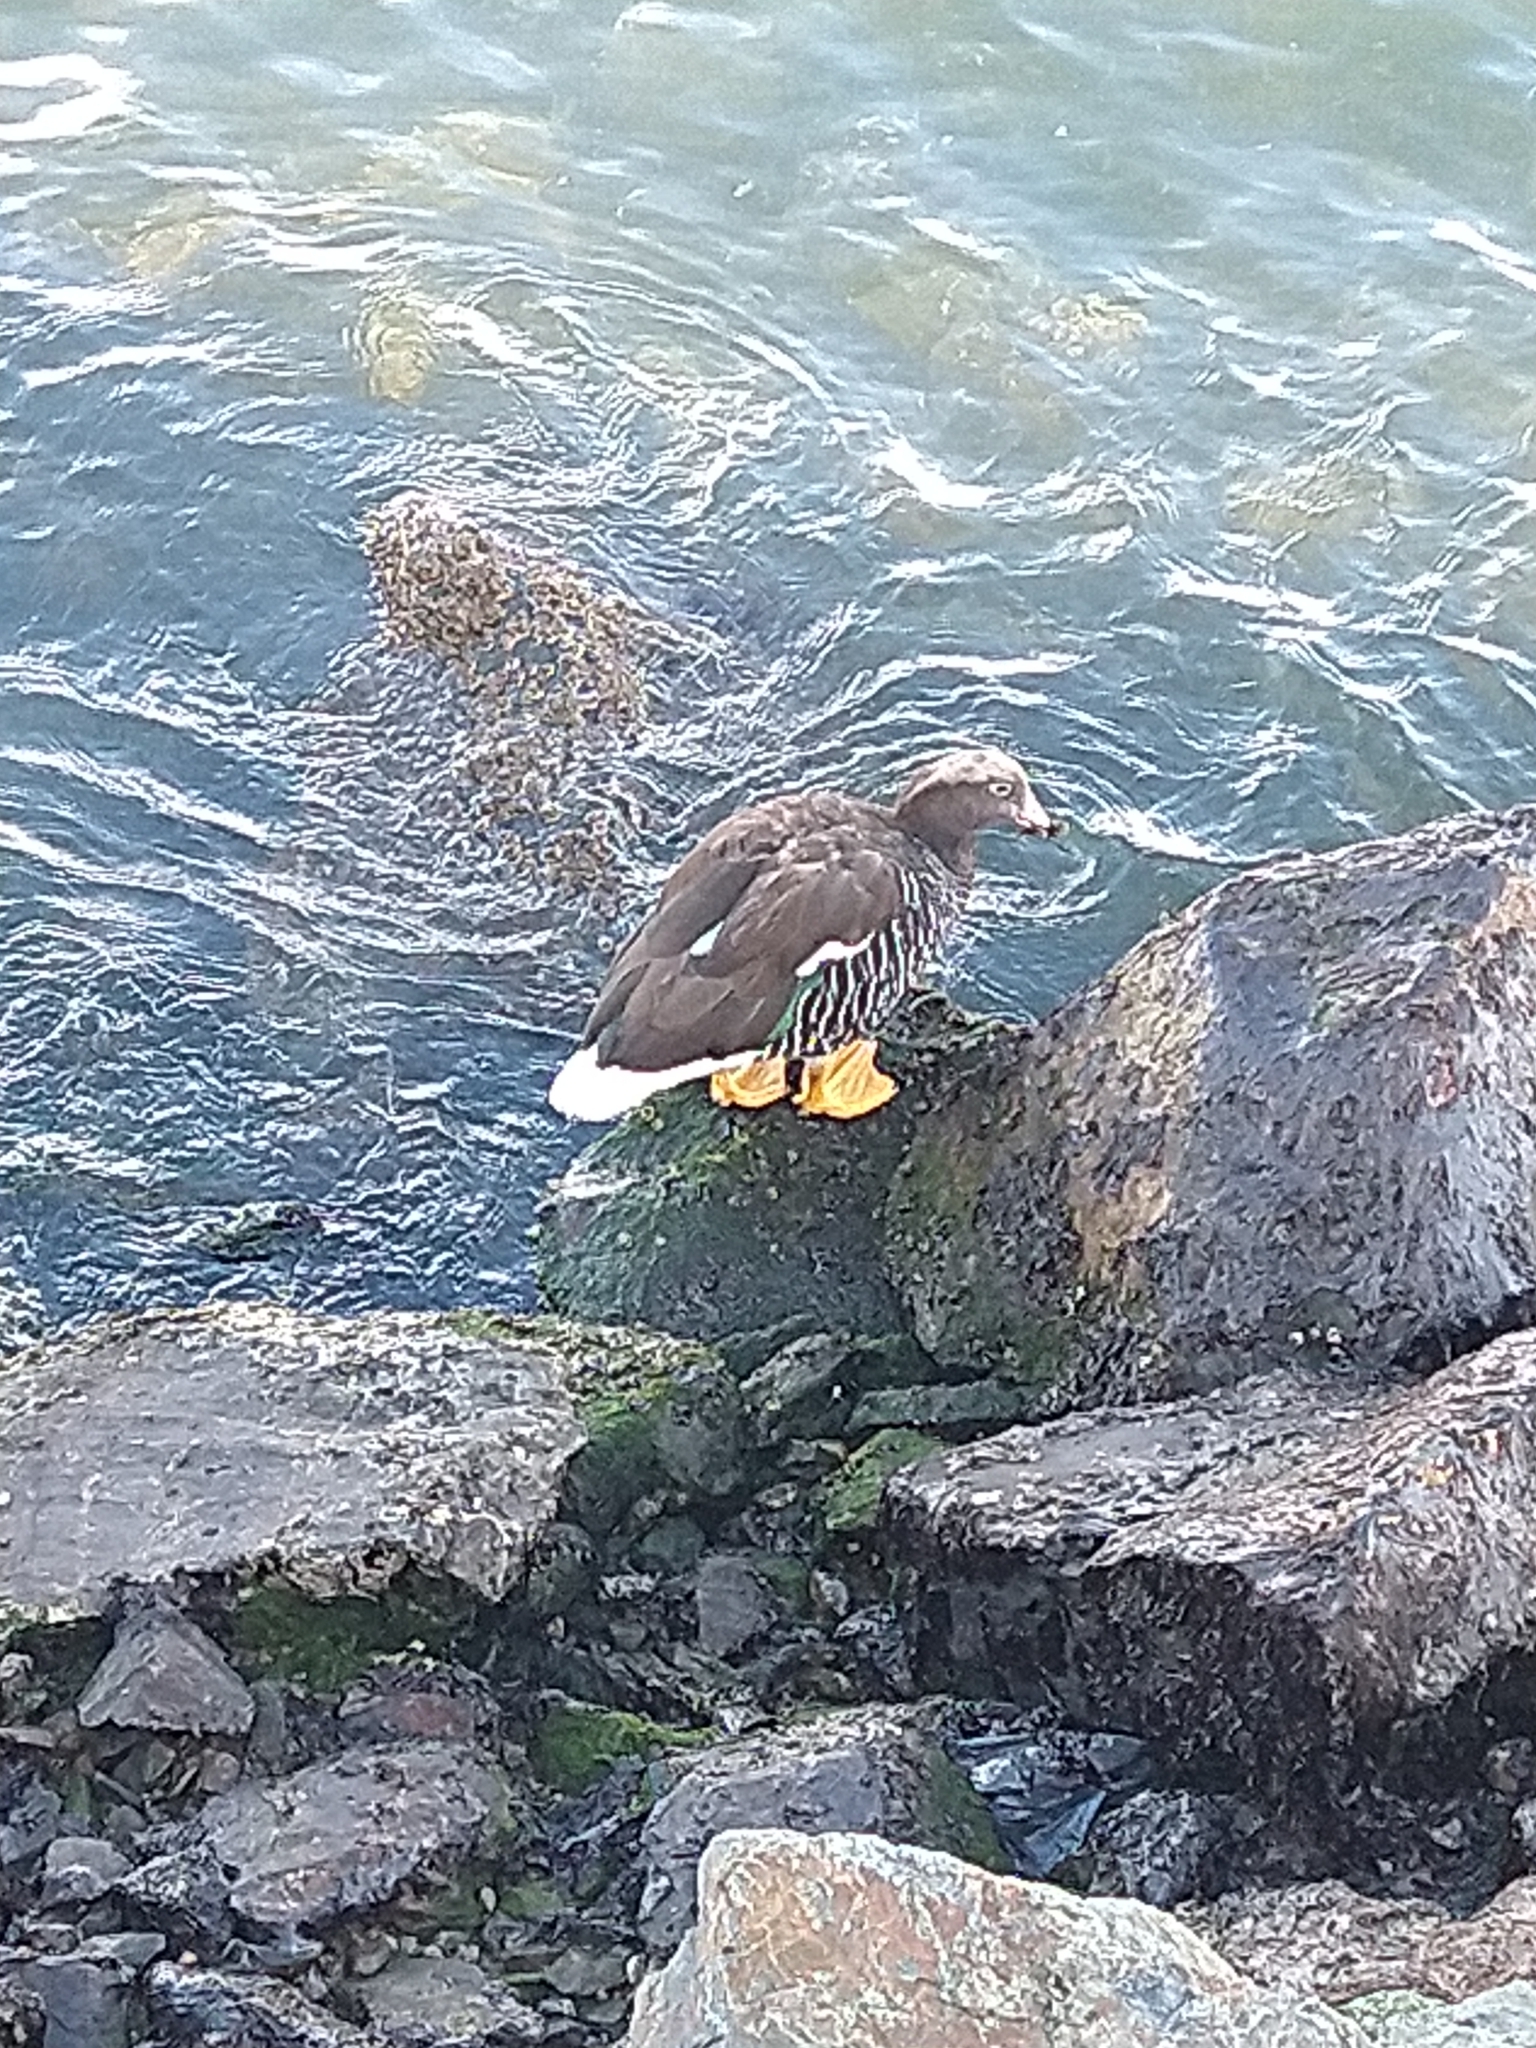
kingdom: Animalia
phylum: Chordata
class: Aves
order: Anseriformes
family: Anatidae
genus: Chloephaga
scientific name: Chloephaga hybrida
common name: Kelp goose
